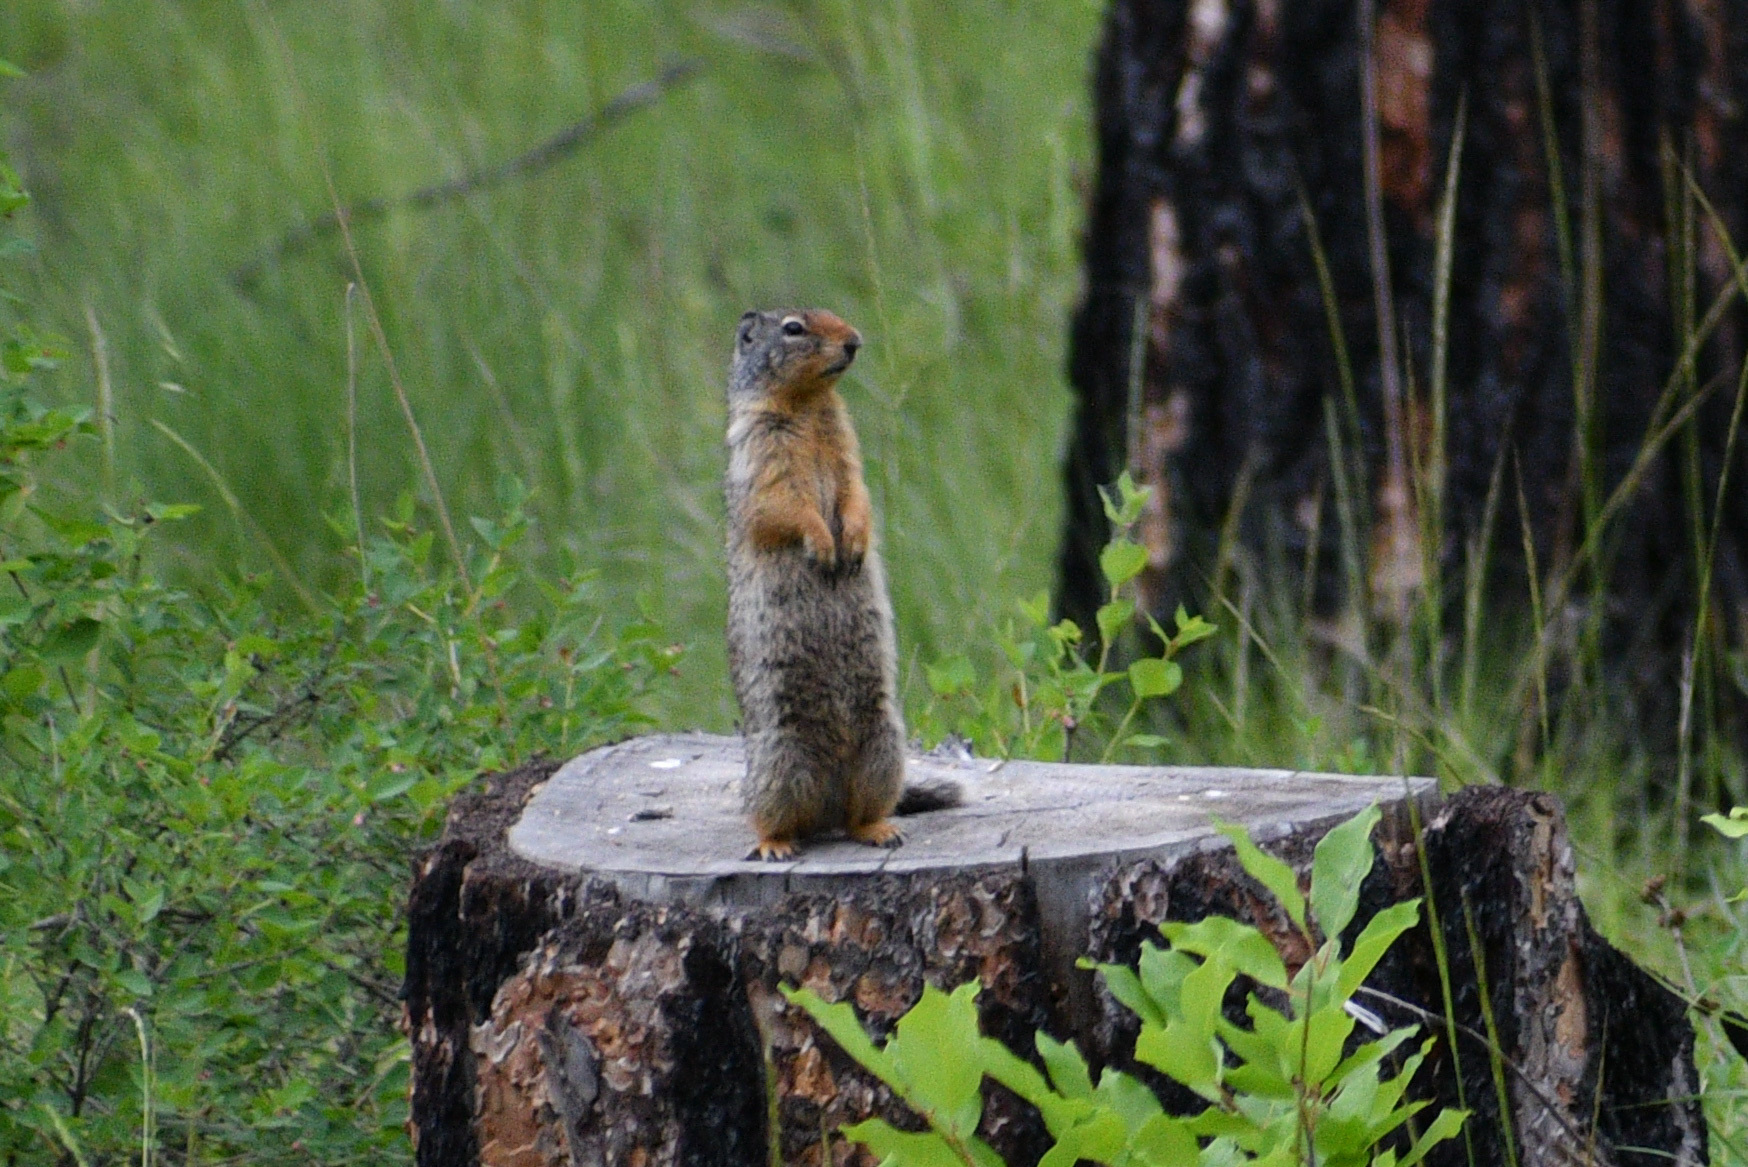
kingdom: Animalia
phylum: Chordata
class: Mammalia
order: Rodentia
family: Sciuridae
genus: Urocitellus
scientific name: Urocitellus columbianus
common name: Columbian ground squirrel
